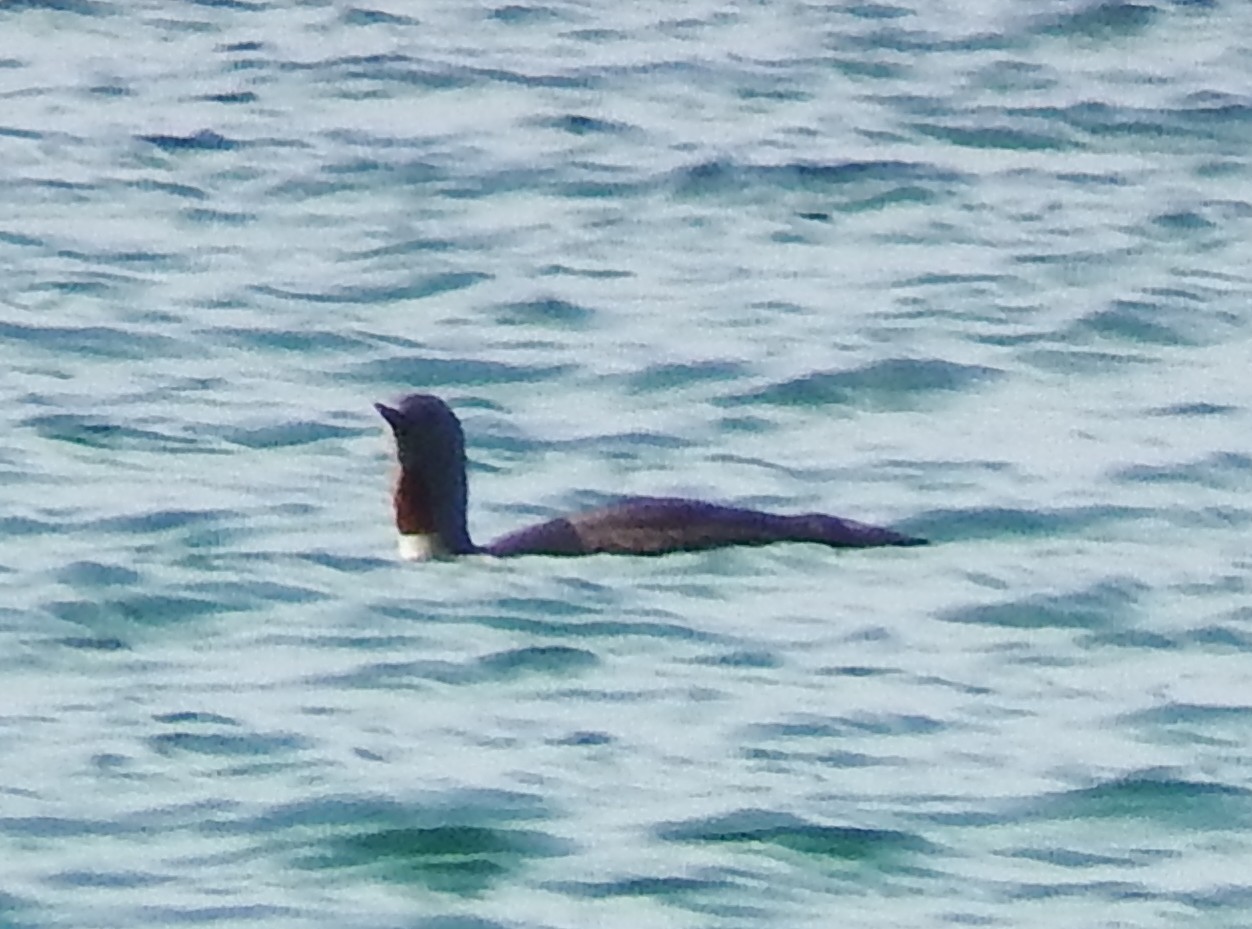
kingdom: Animalia
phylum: Chordata
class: Aves
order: Gaviiformes
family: Gaviidae
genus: Gavia
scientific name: Gavia stellata
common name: Red-throated loon
